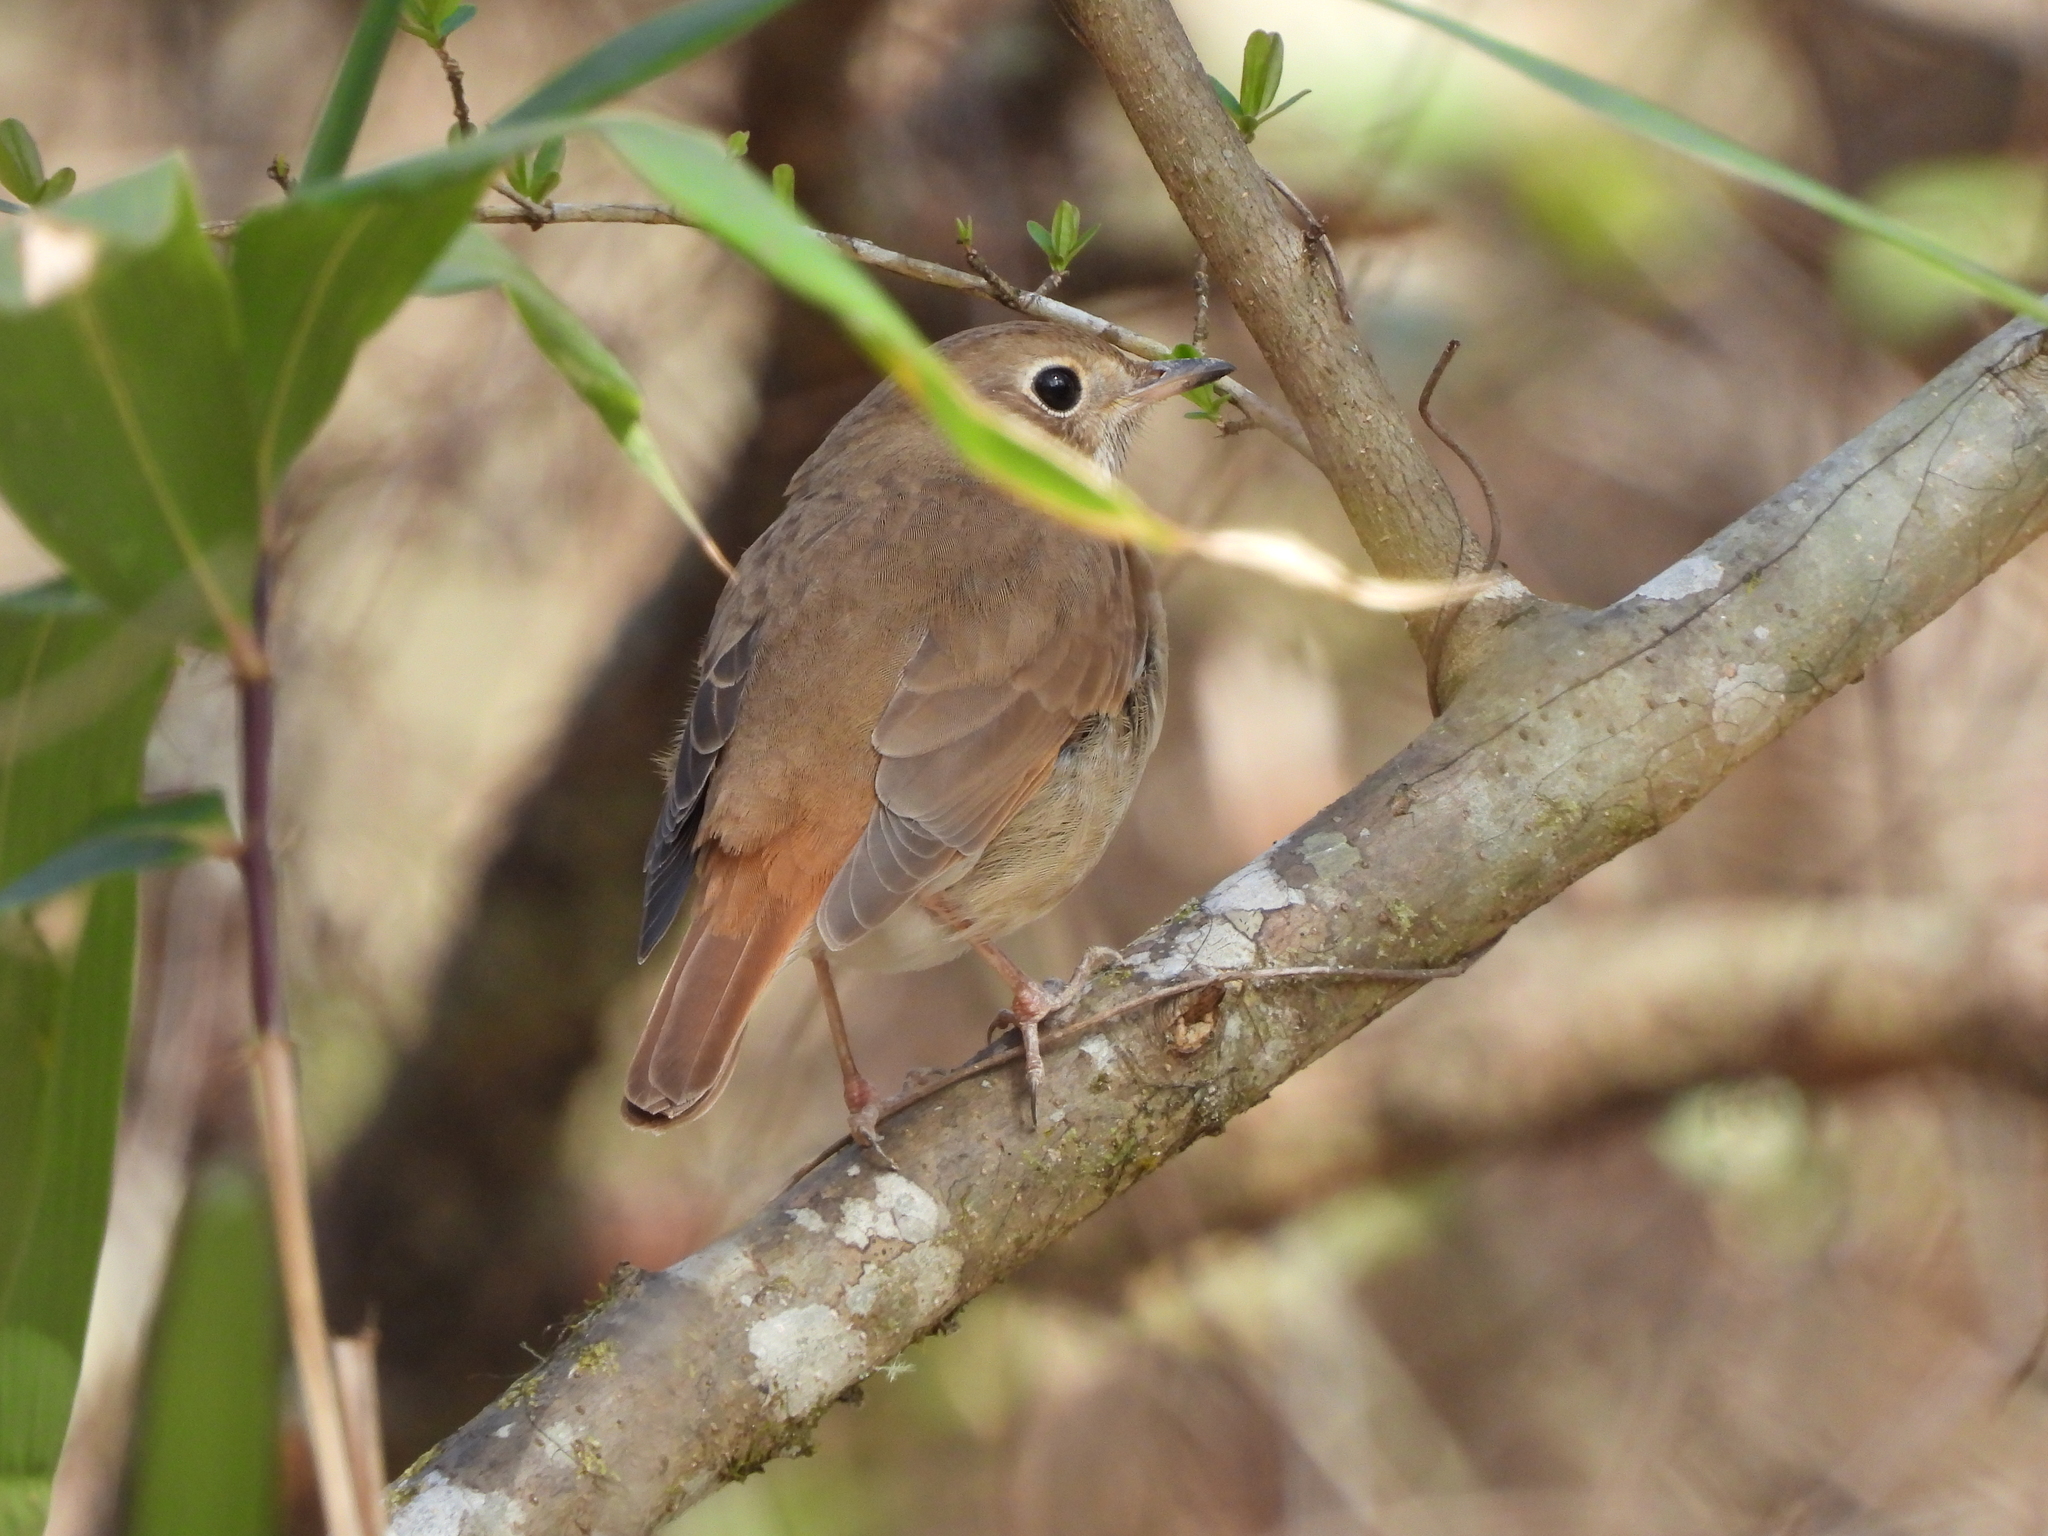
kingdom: Animalia
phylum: Chordata
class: Aves
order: Passeriformes
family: Turdidae
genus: Catharus
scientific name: Catharus guttatus
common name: Hermit thrush
